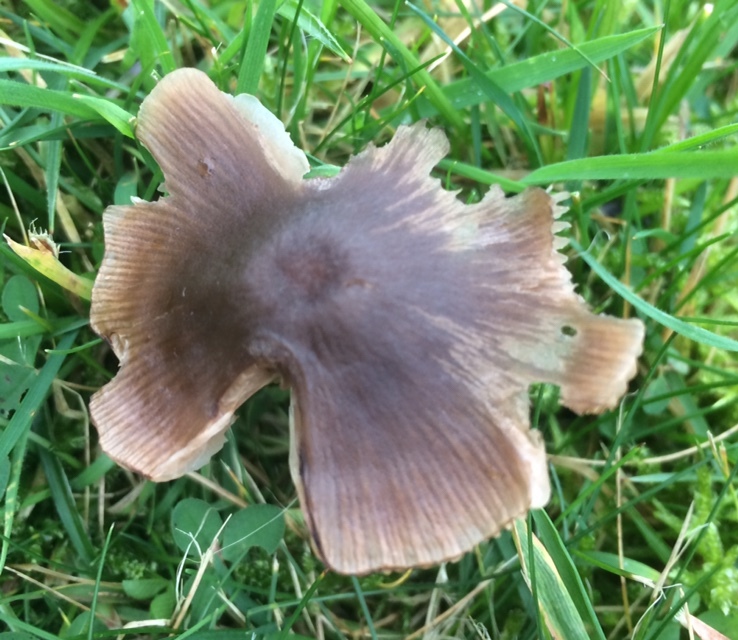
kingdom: Fungi
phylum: Basidiomycota
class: Agaricomycetes
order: Agaricales
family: Entolomataceae
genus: Entoloma
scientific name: Entoloma conferendum
